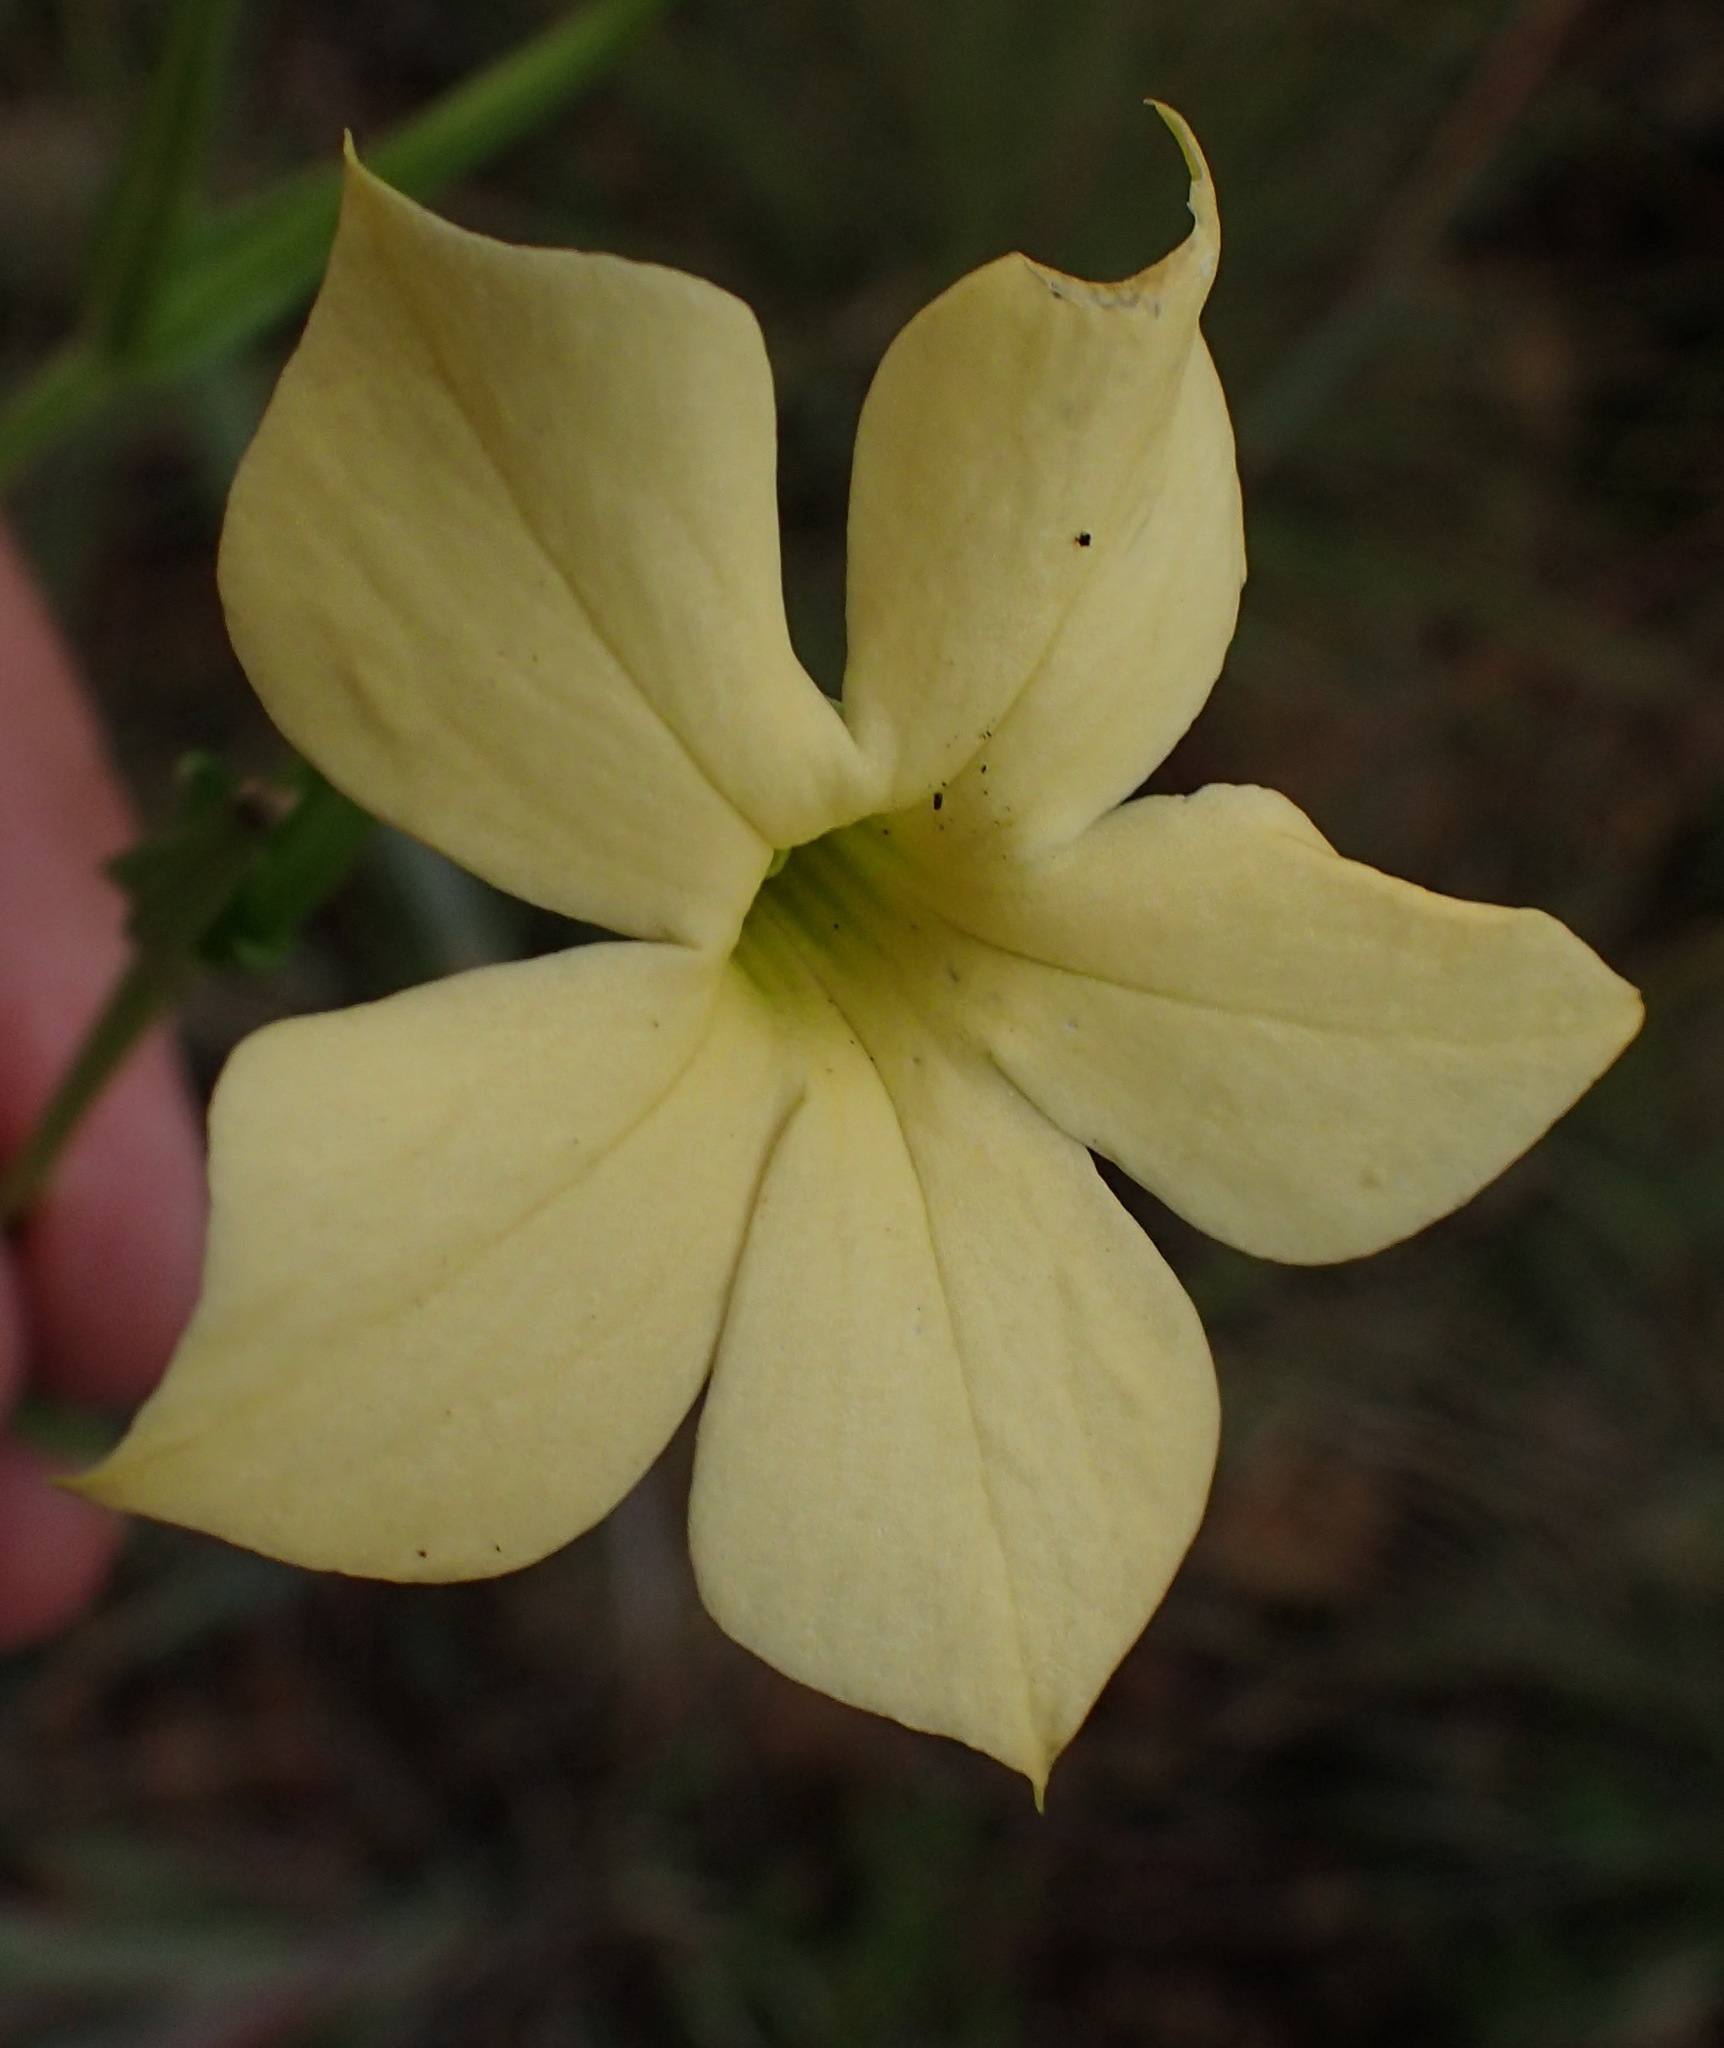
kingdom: Plantae
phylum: Tracheophyta
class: Magnoliopsida
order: Gentianales
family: Gentianaceae
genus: Exochaenium
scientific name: Exochaenium grande
